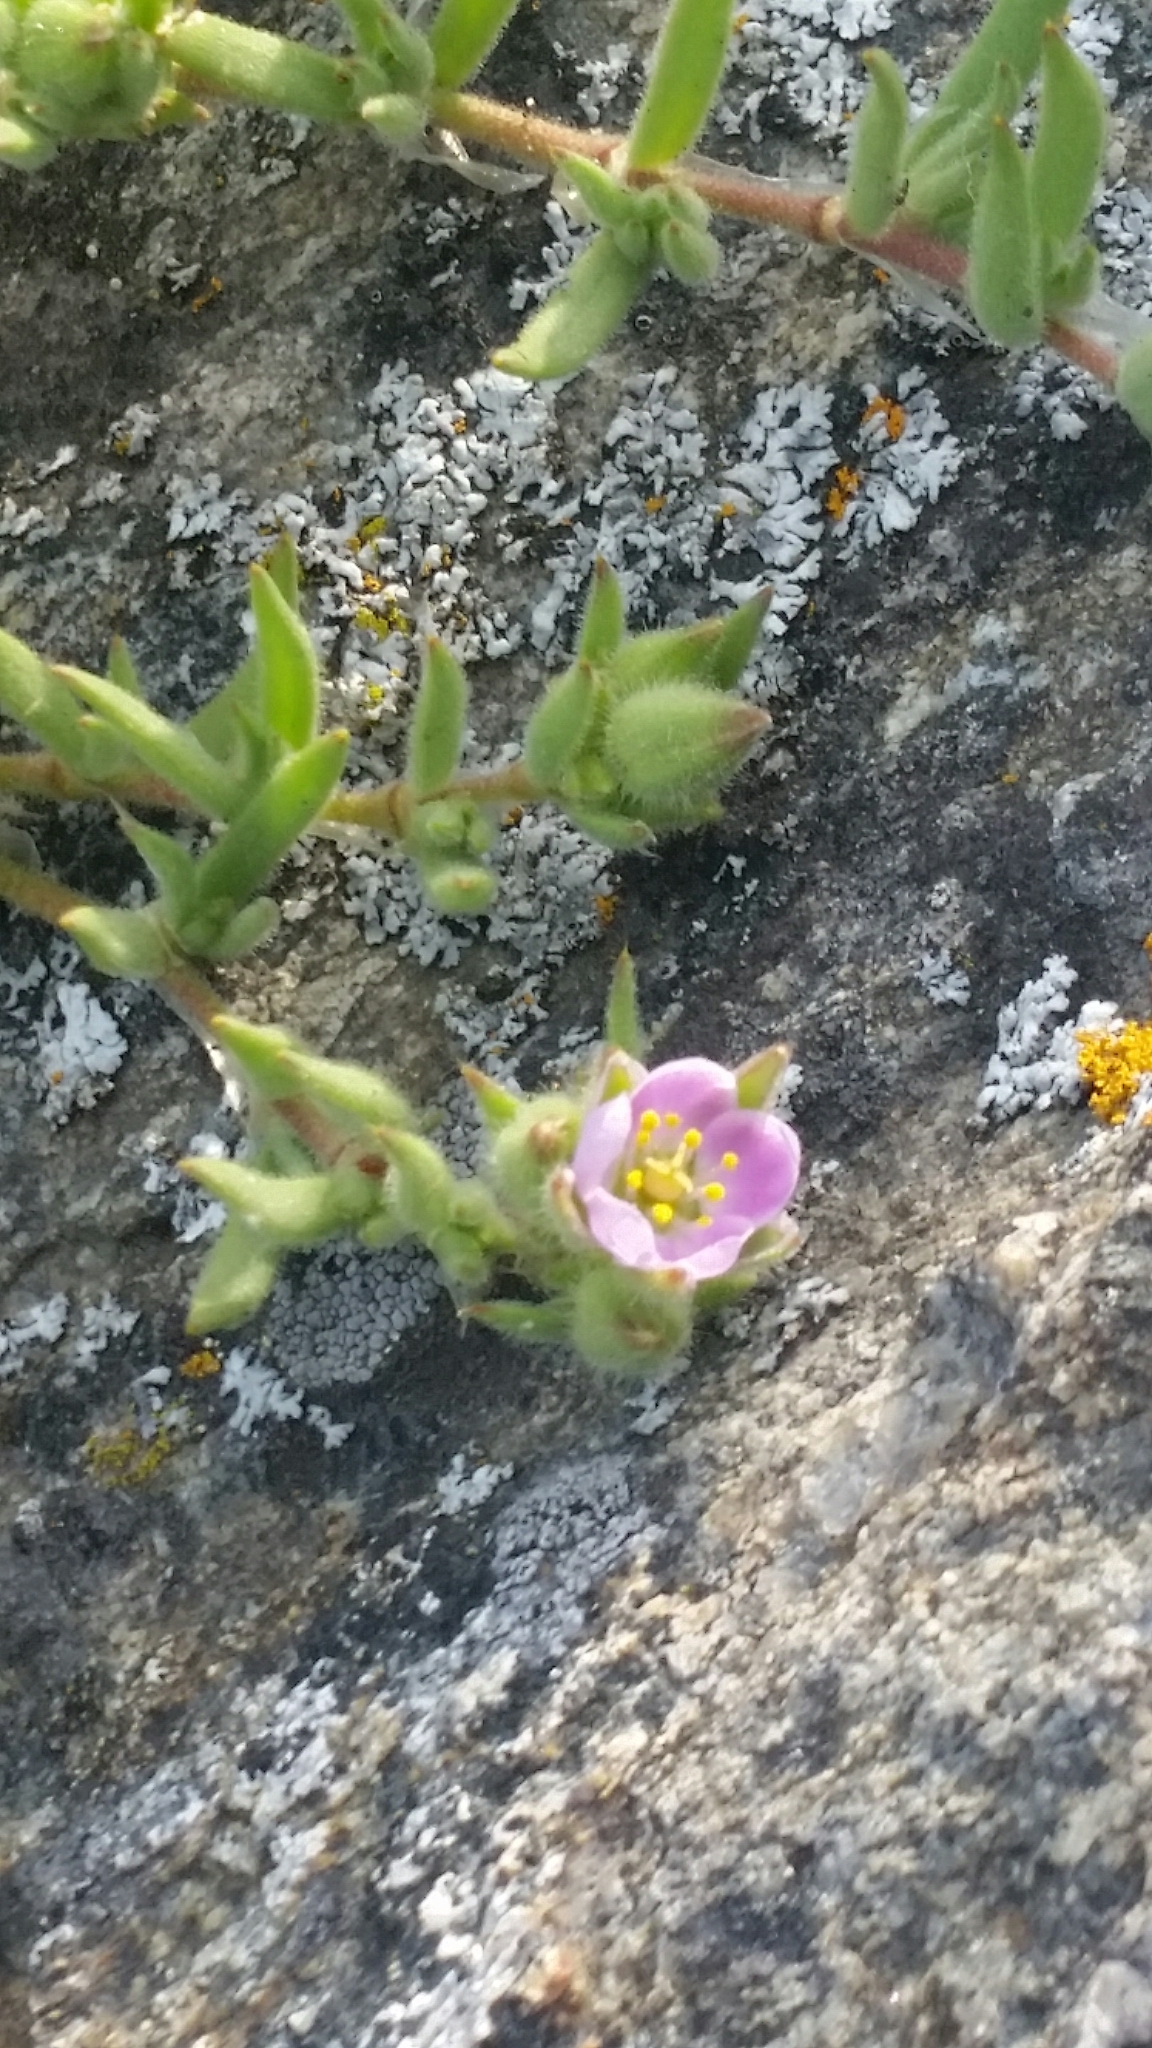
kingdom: Plantae
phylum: Tracheophyta
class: Magnoliopsida
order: Caryophyllales
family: Caryophyllaceae
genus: Spergularia
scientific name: Spergularia macrotheca
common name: Beach sand-spurrey
